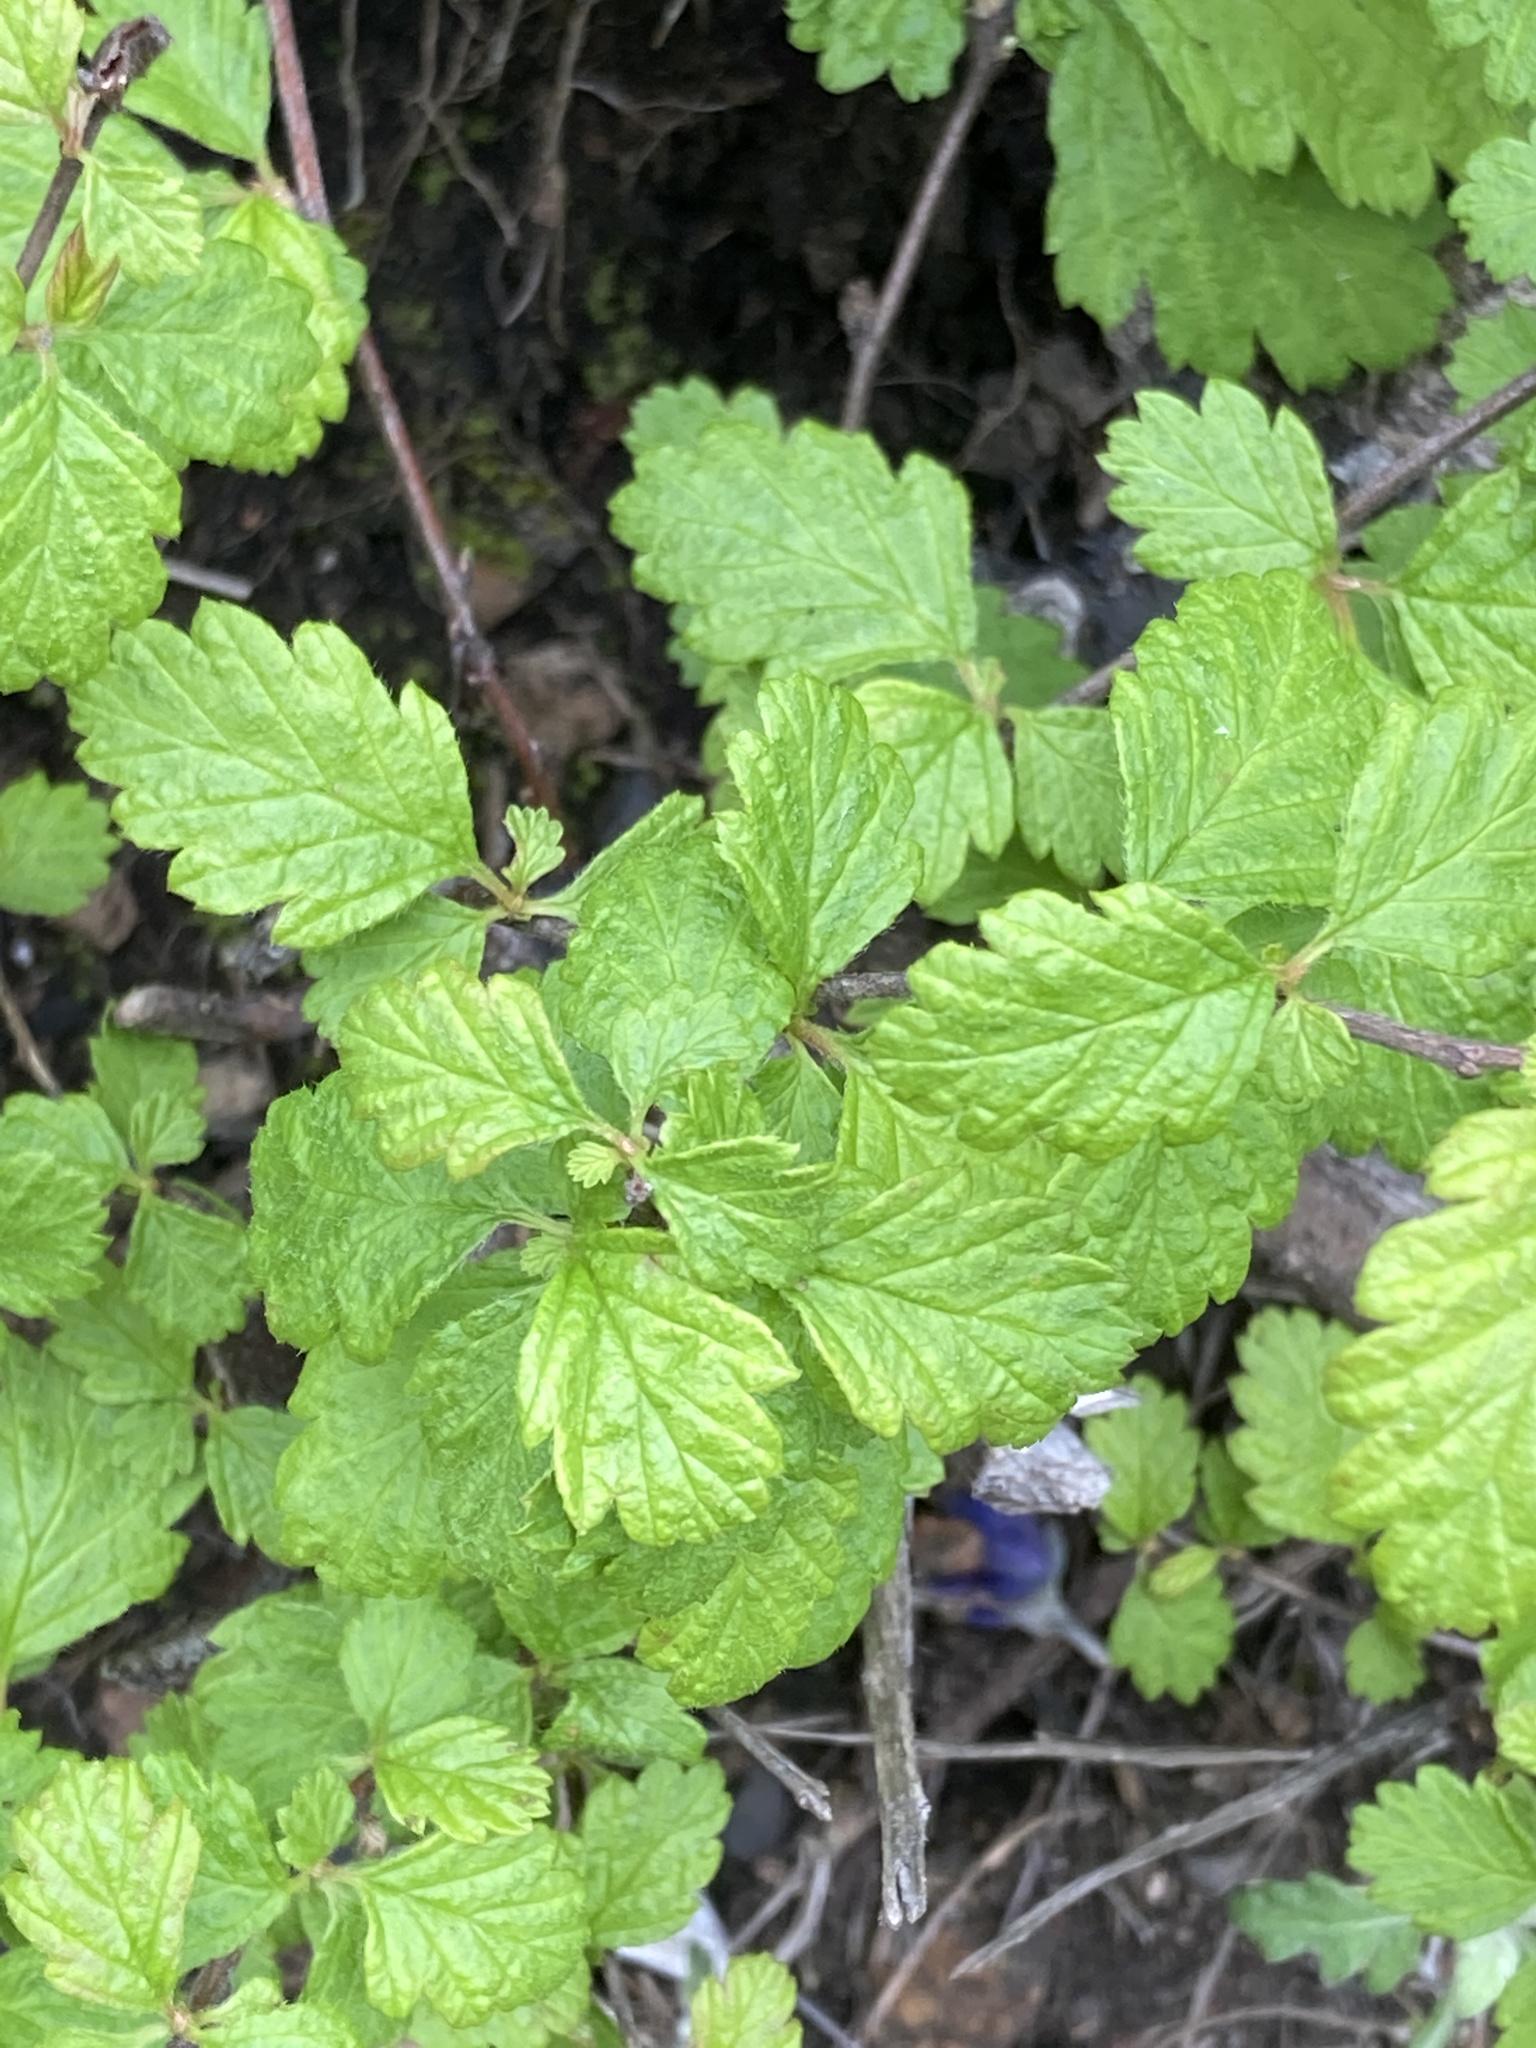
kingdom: Plantae
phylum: Tracheophyta
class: Magnoliopsida
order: Rosales
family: Rosaceae
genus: Holodiscus
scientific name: Holodiscus discolor
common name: Oceanspray
